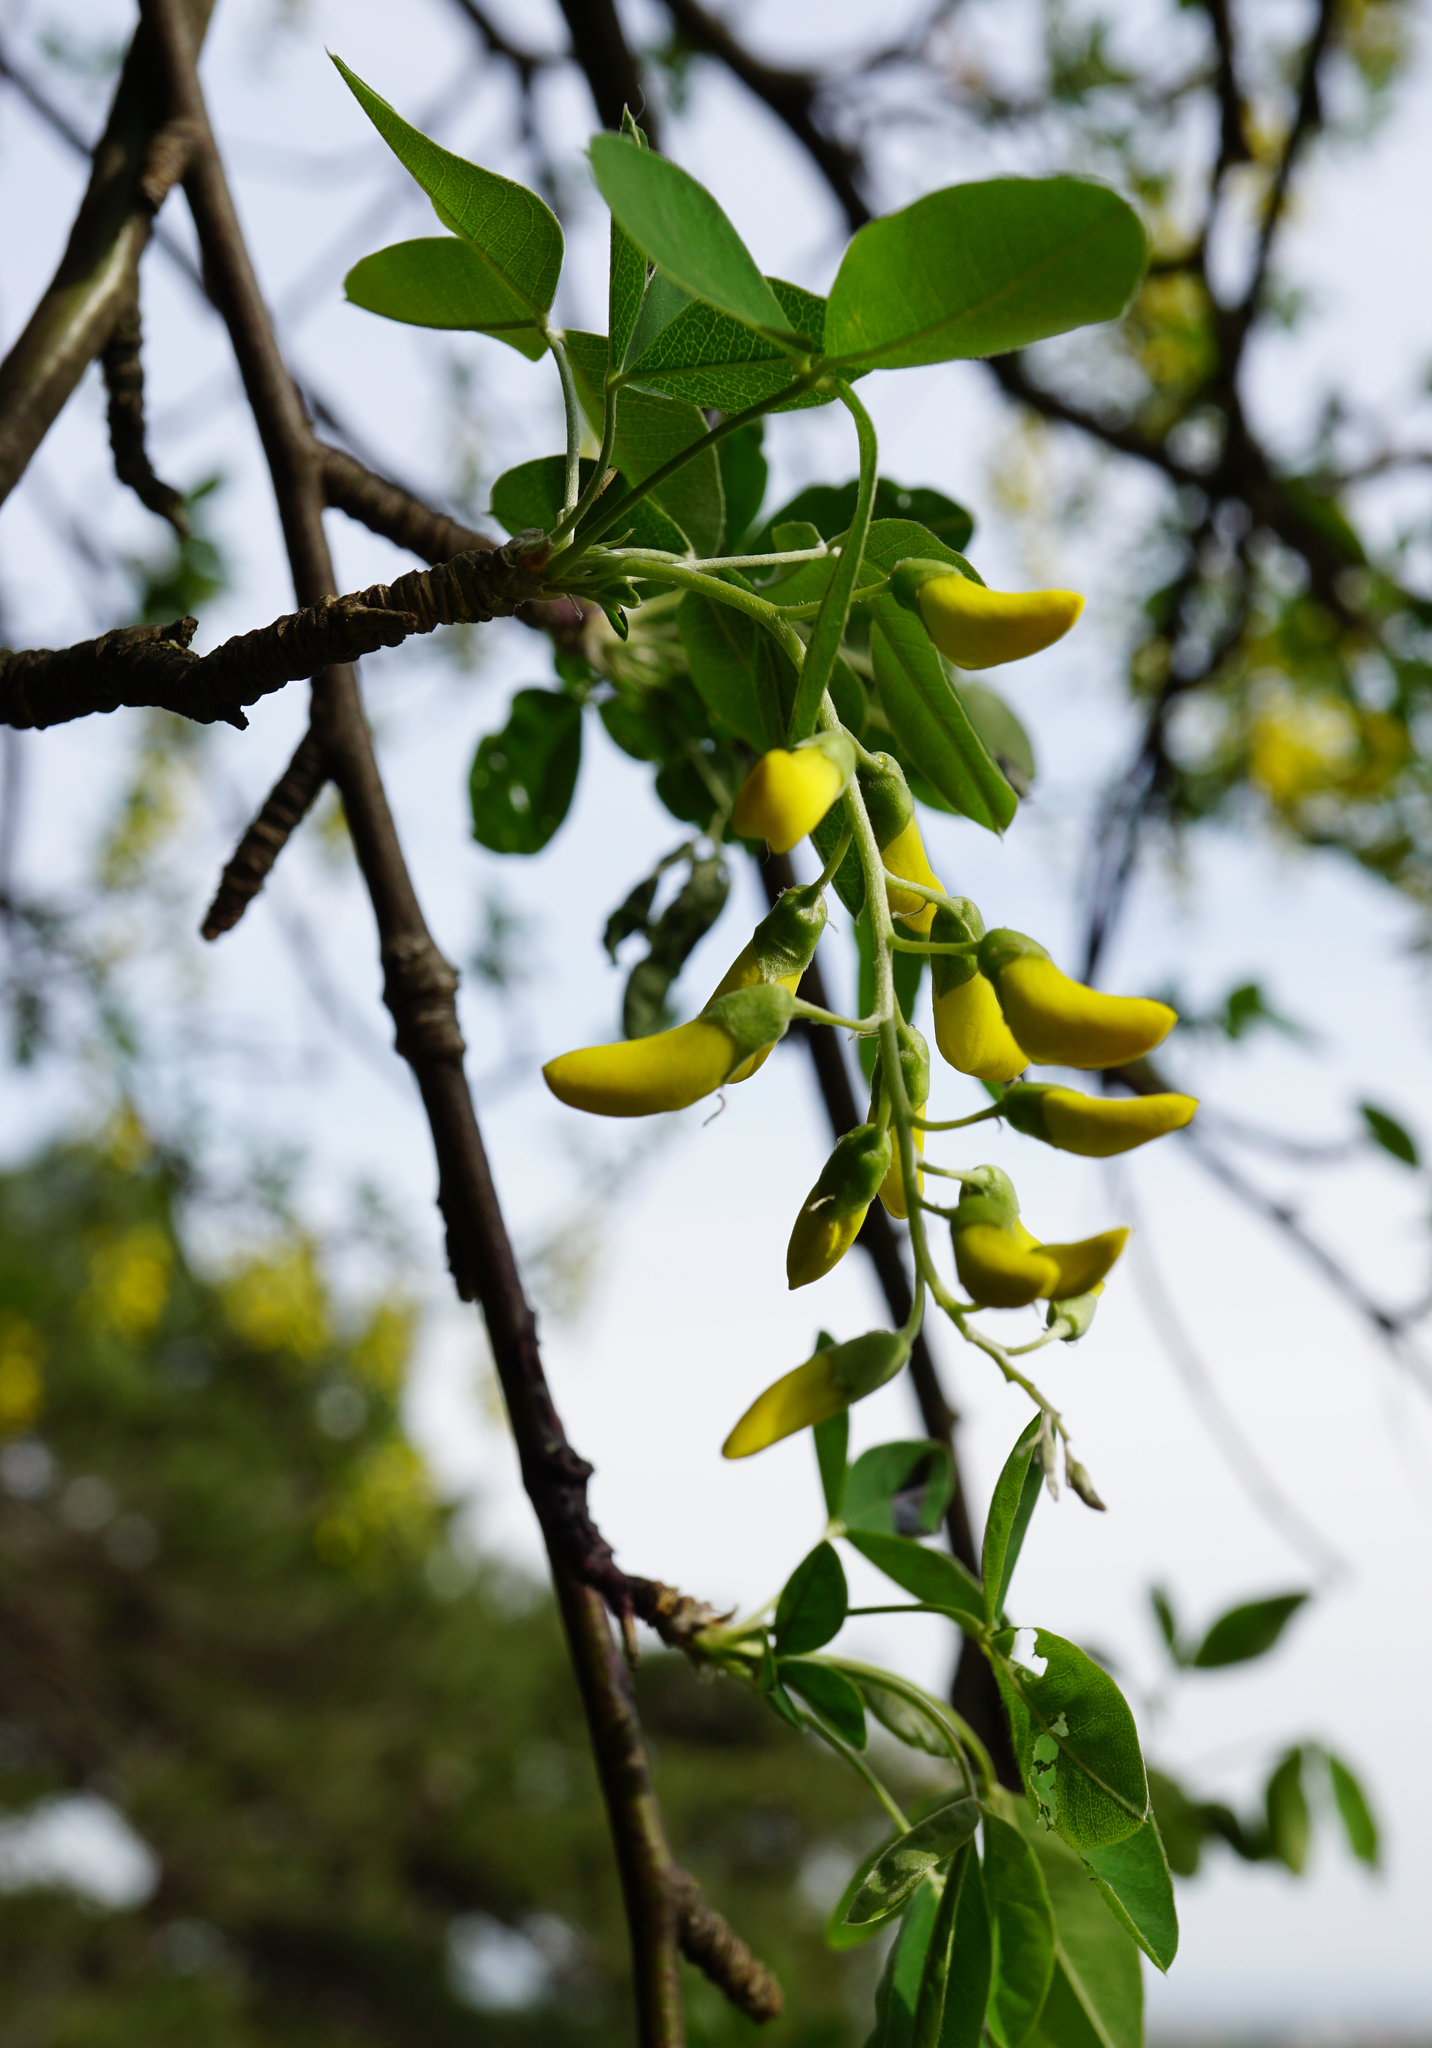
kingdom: Plantae
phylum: Tracheophyta
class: Magnoliopsida
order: Fabales
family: Fabaceae
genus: Laburnum
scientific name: Laburnum anagyroides
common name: Laburnum
